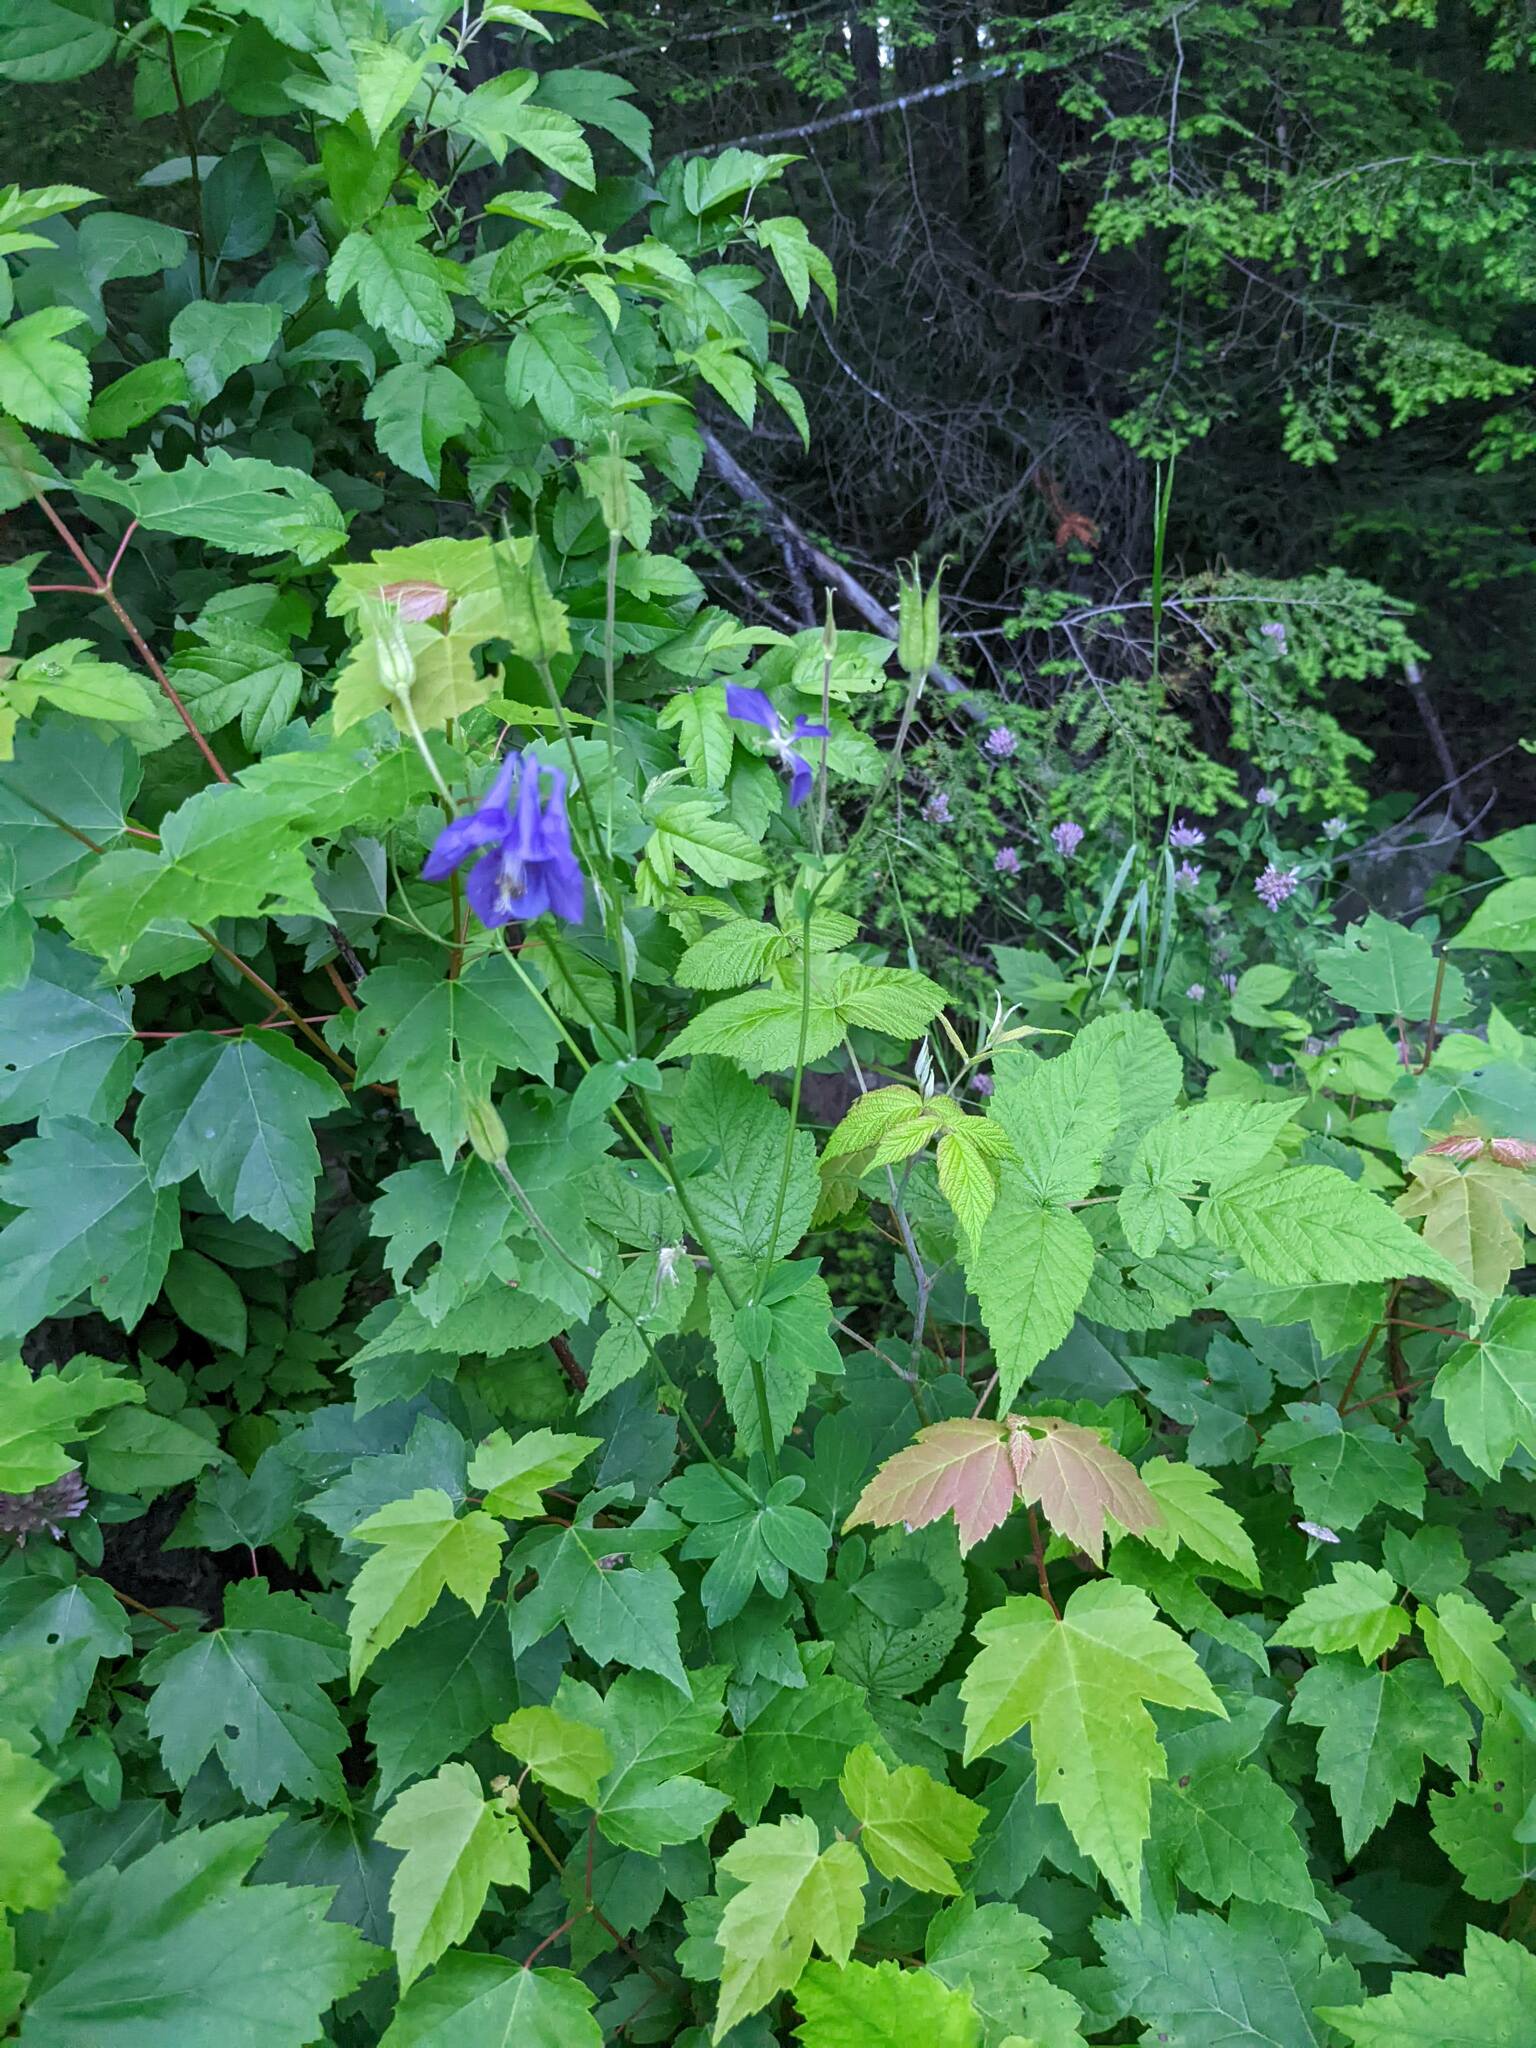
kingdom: Plantae
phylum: Tracheophyta
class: Magnoliopsida
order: Ranunculales
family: Ranunculaceae
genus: Aquilegia
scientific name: Aquilegia vulgaris
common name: Columbine
